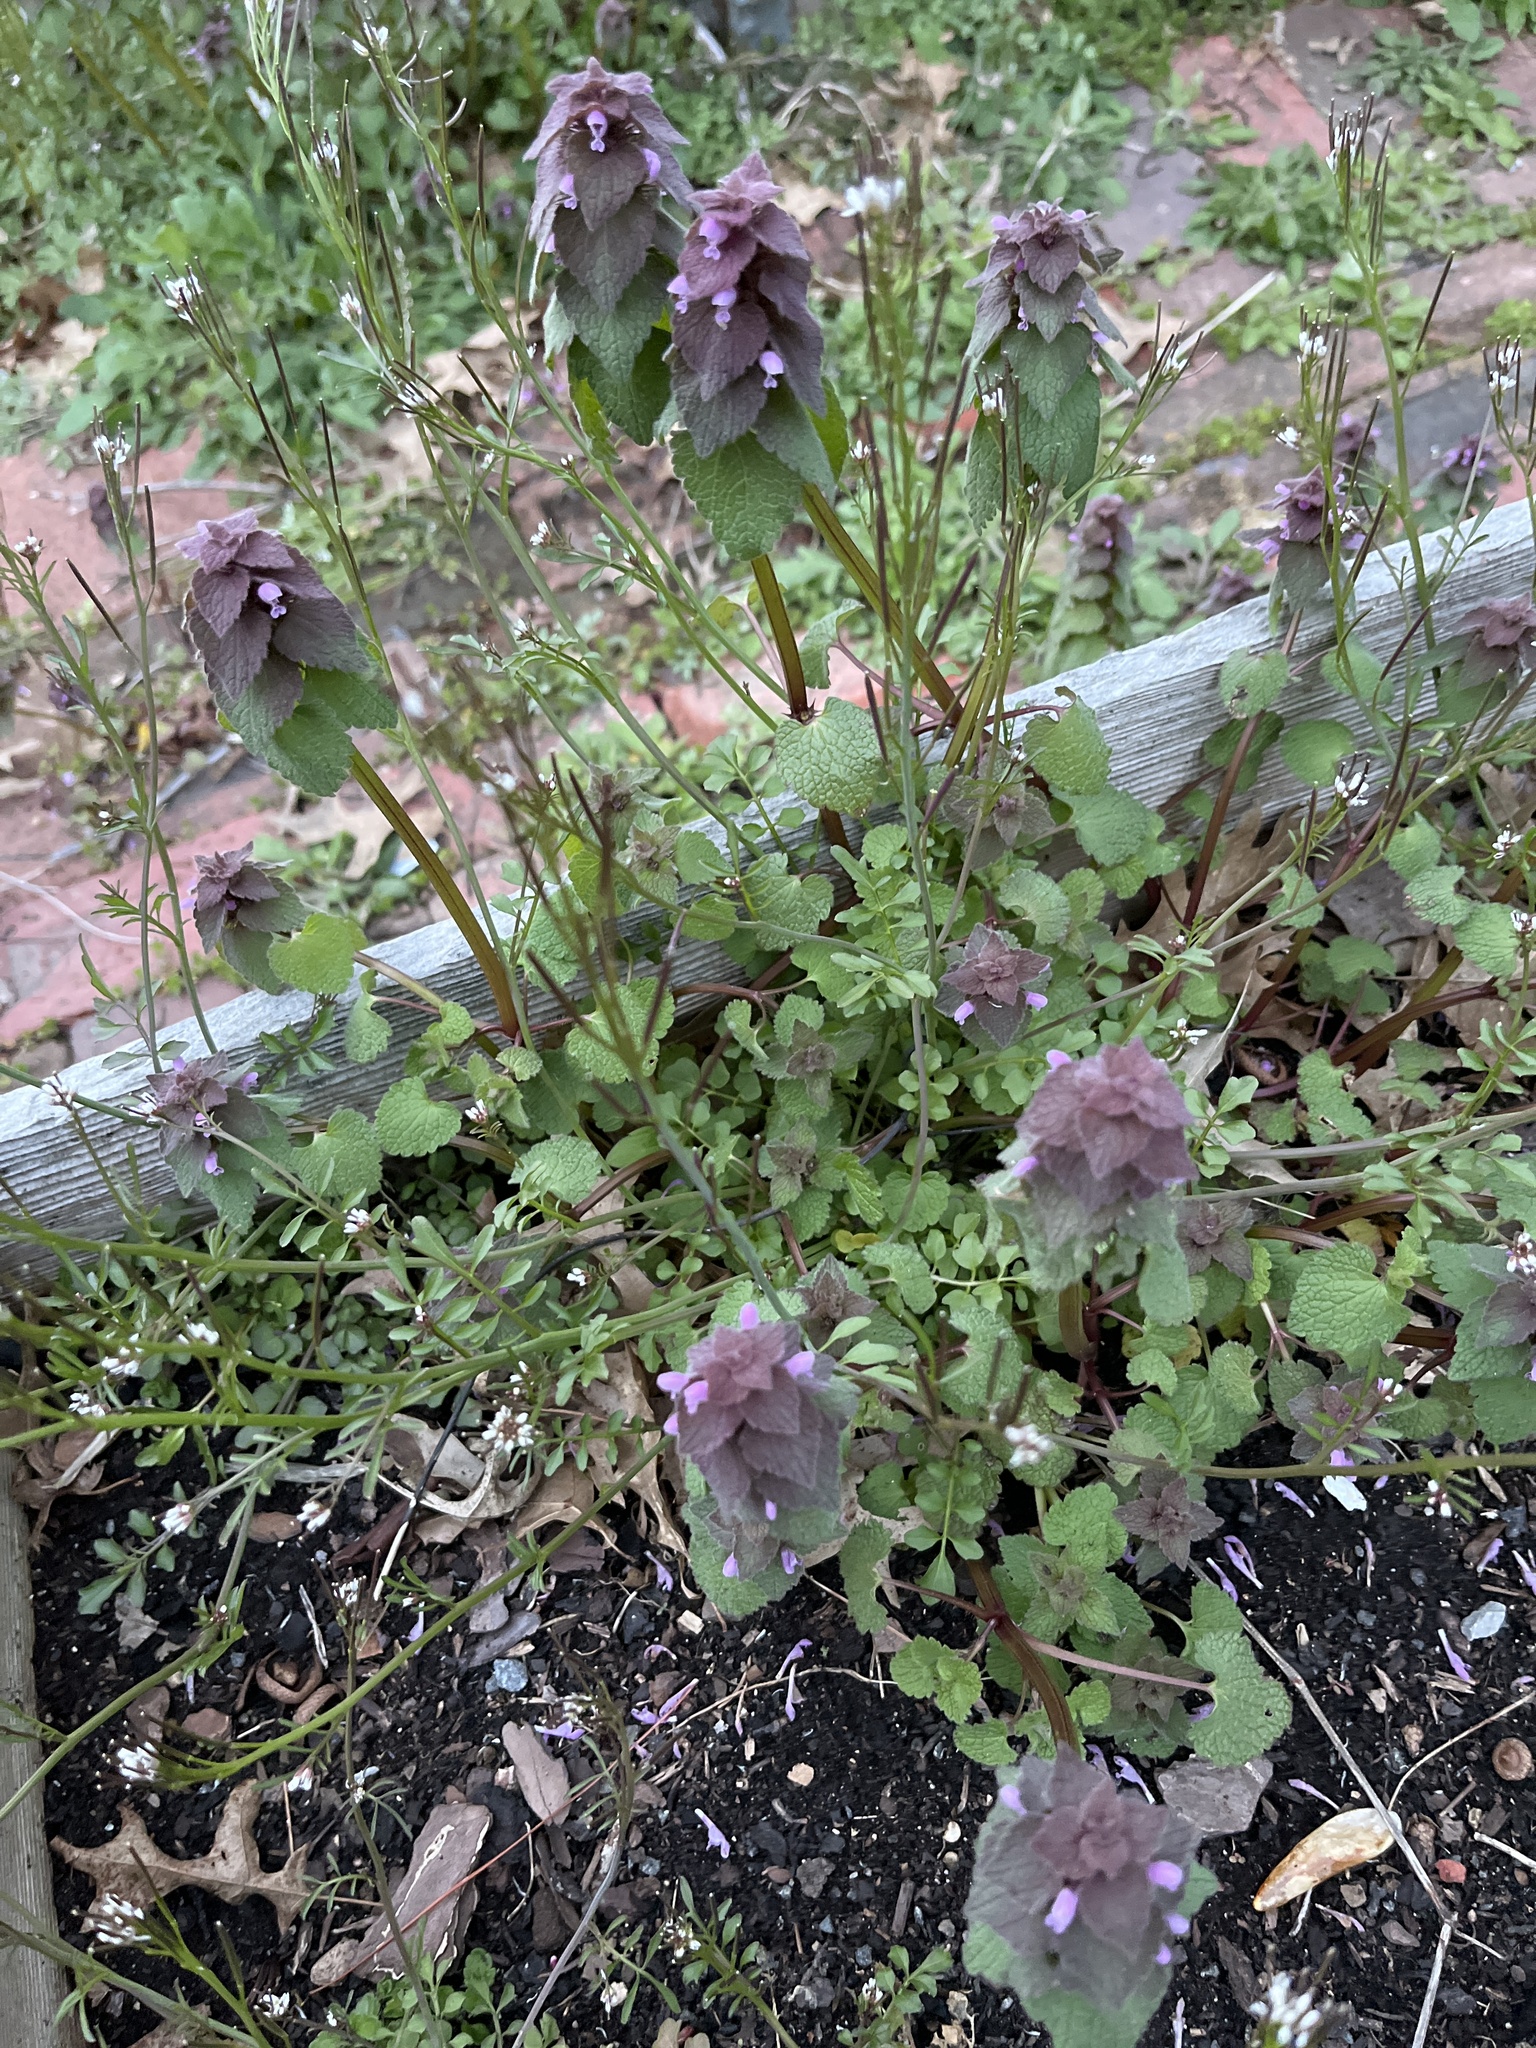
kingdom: Plantae
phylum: Tracheophyta
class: Magnoliopsida
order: Lamiales
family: Lamiaceae
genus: Lamium
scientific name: Lamium purpureum
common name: Red dead-nettle
